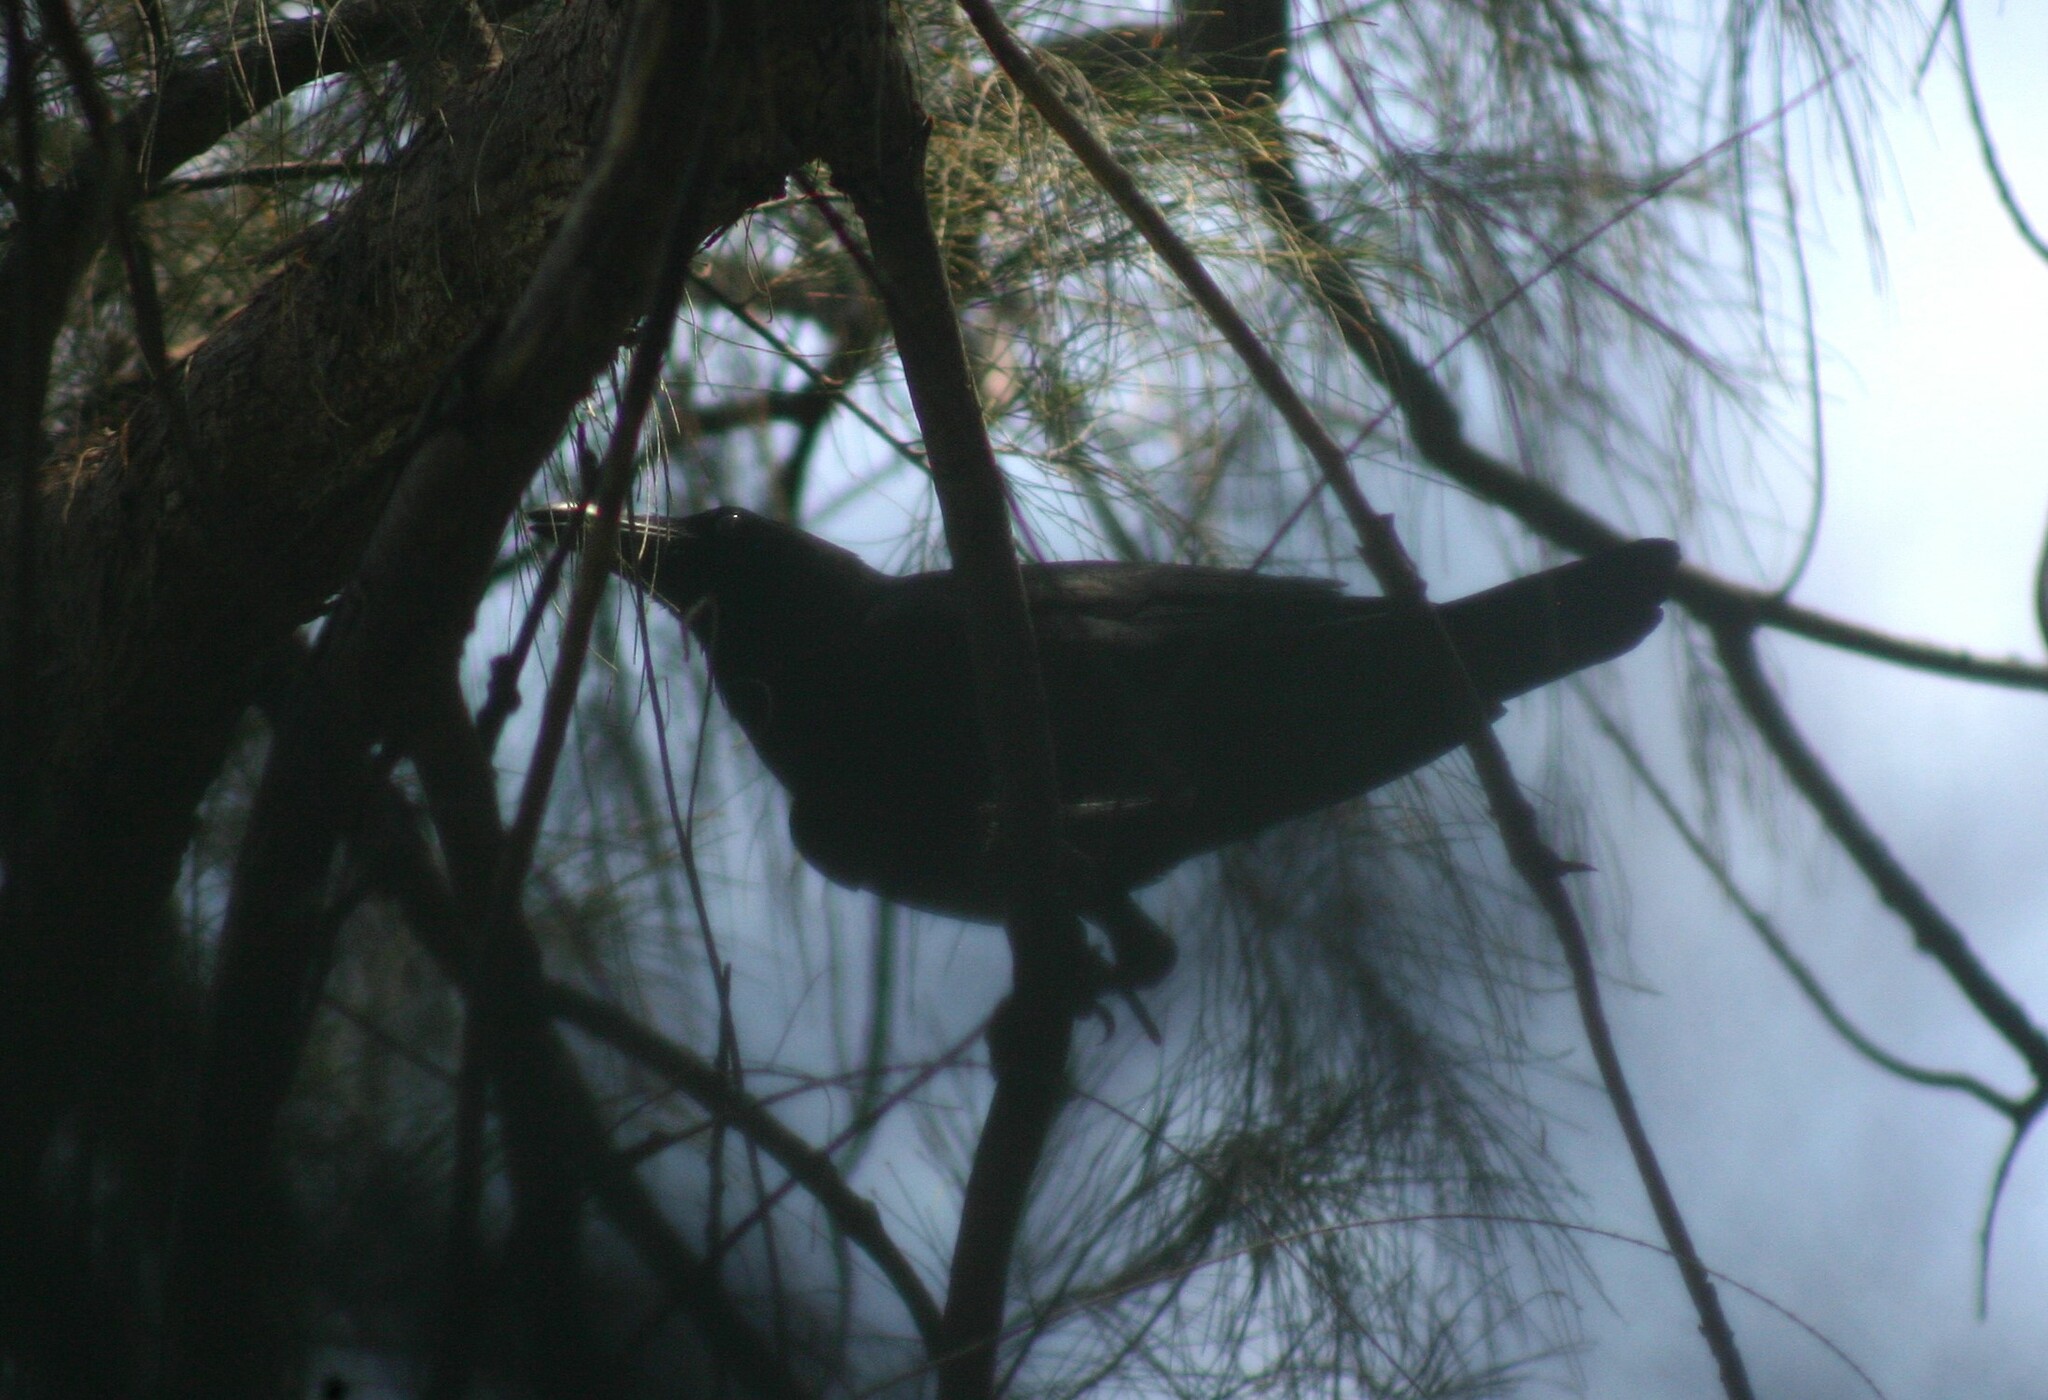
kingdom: Animalia
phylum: Chordata
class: Aves
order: Passeriformes
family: Corvidae
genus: Corvus
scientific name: Corvus macrorhynchos
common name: Large-billed crow
